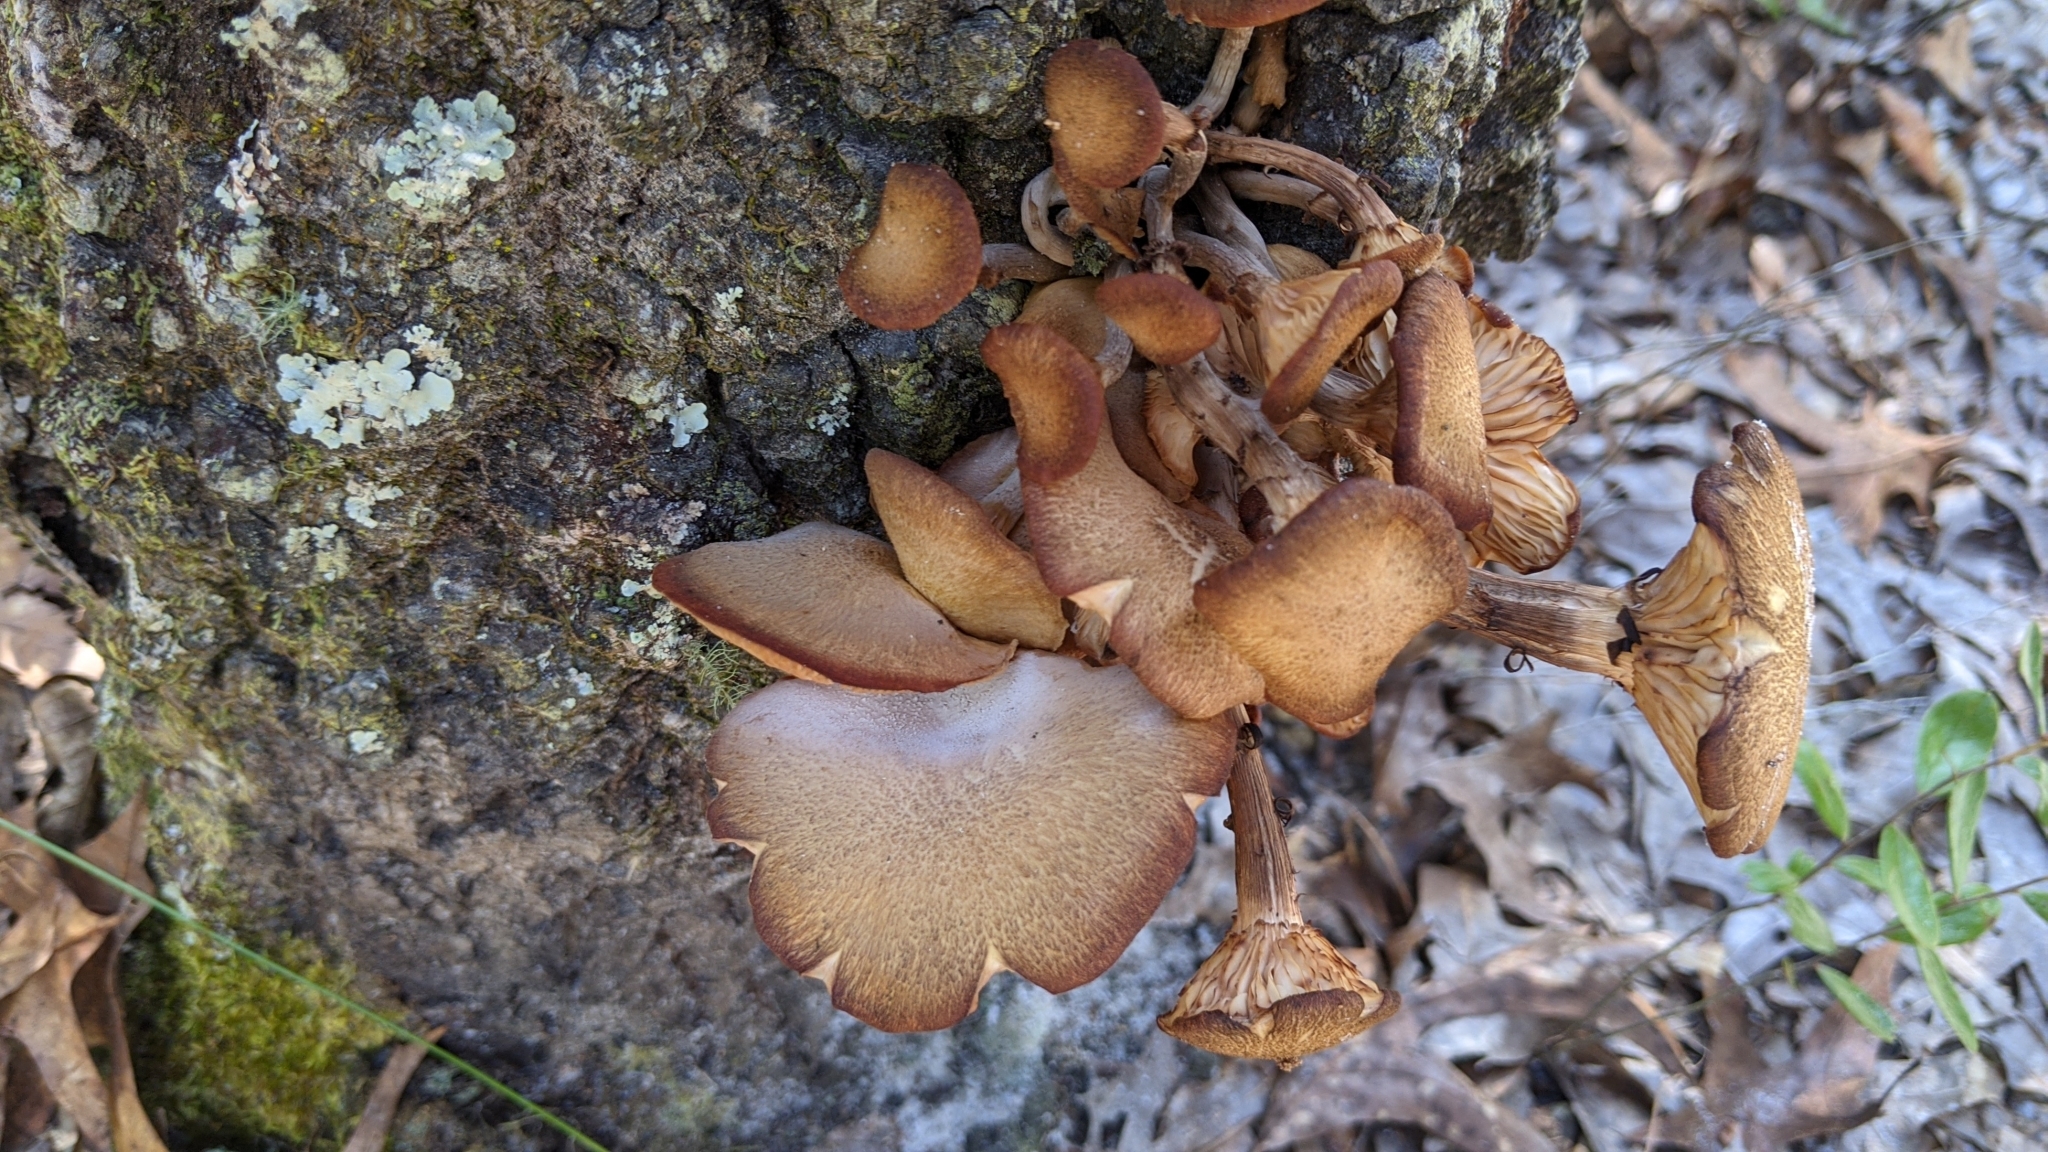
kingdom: Fungi
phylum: Basidiomycota
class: Agaricomycetes
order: Agaricales
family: Physalacriaceae
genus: Desarmillaria
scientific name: Desarmillaria caespitosa
